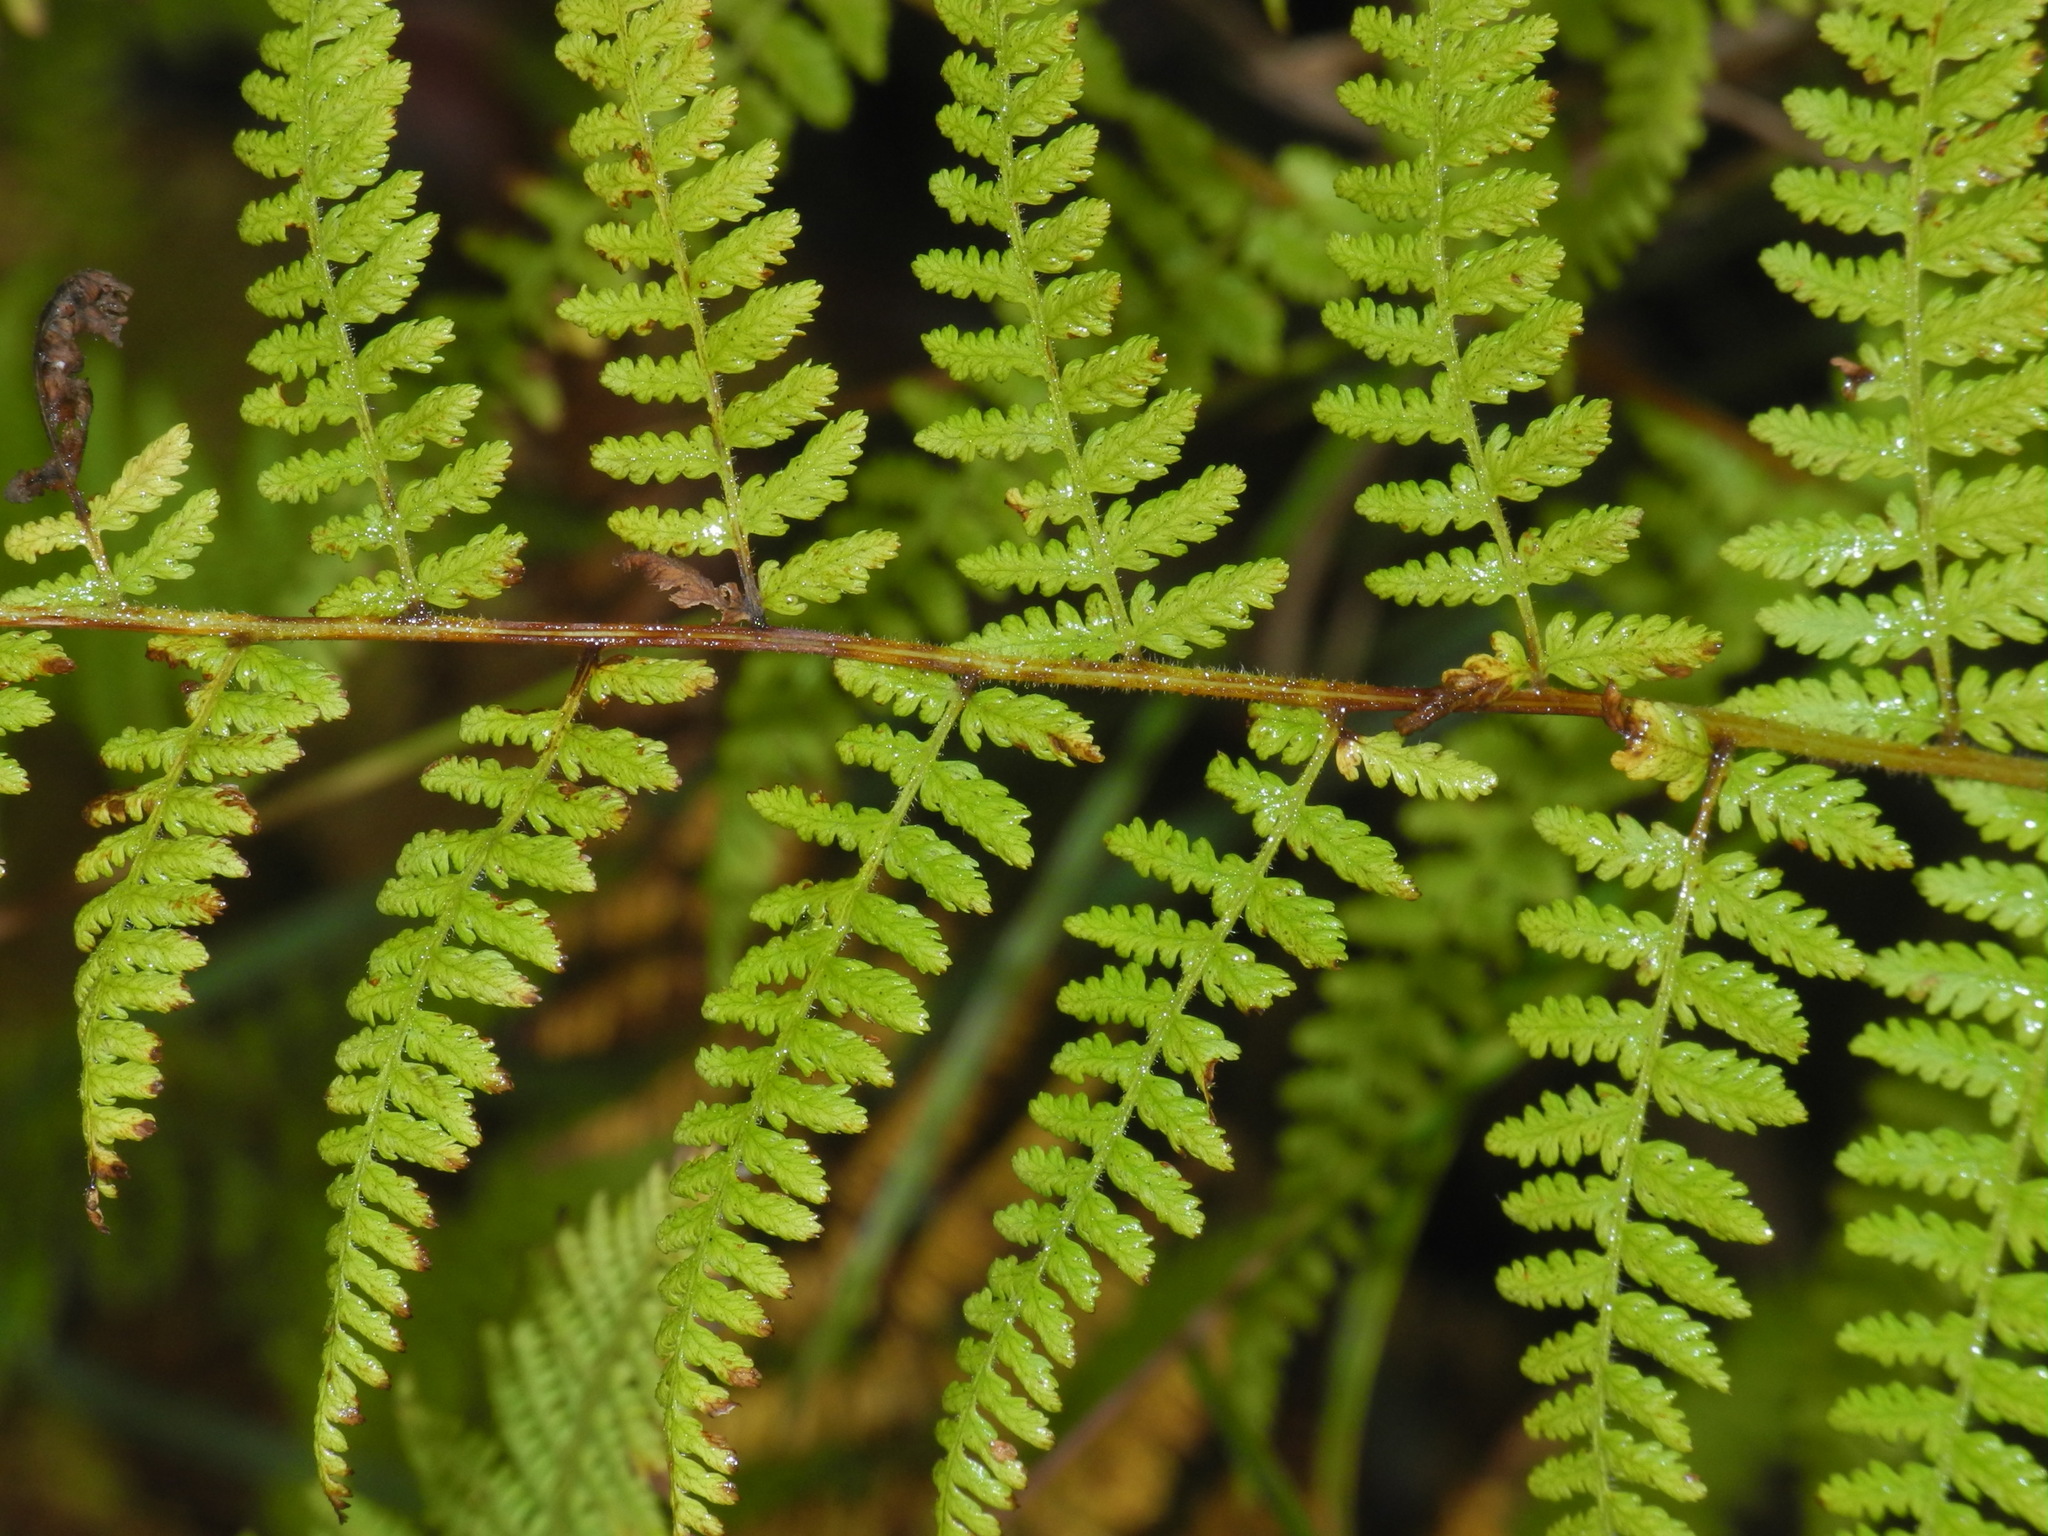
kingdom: Plantae
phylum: Tracheophyta
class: Polypodiopsida
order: Polypodiales
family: Dennstaedtiaceae
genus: Sitobolium
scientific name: Sitobolium punctilobum
